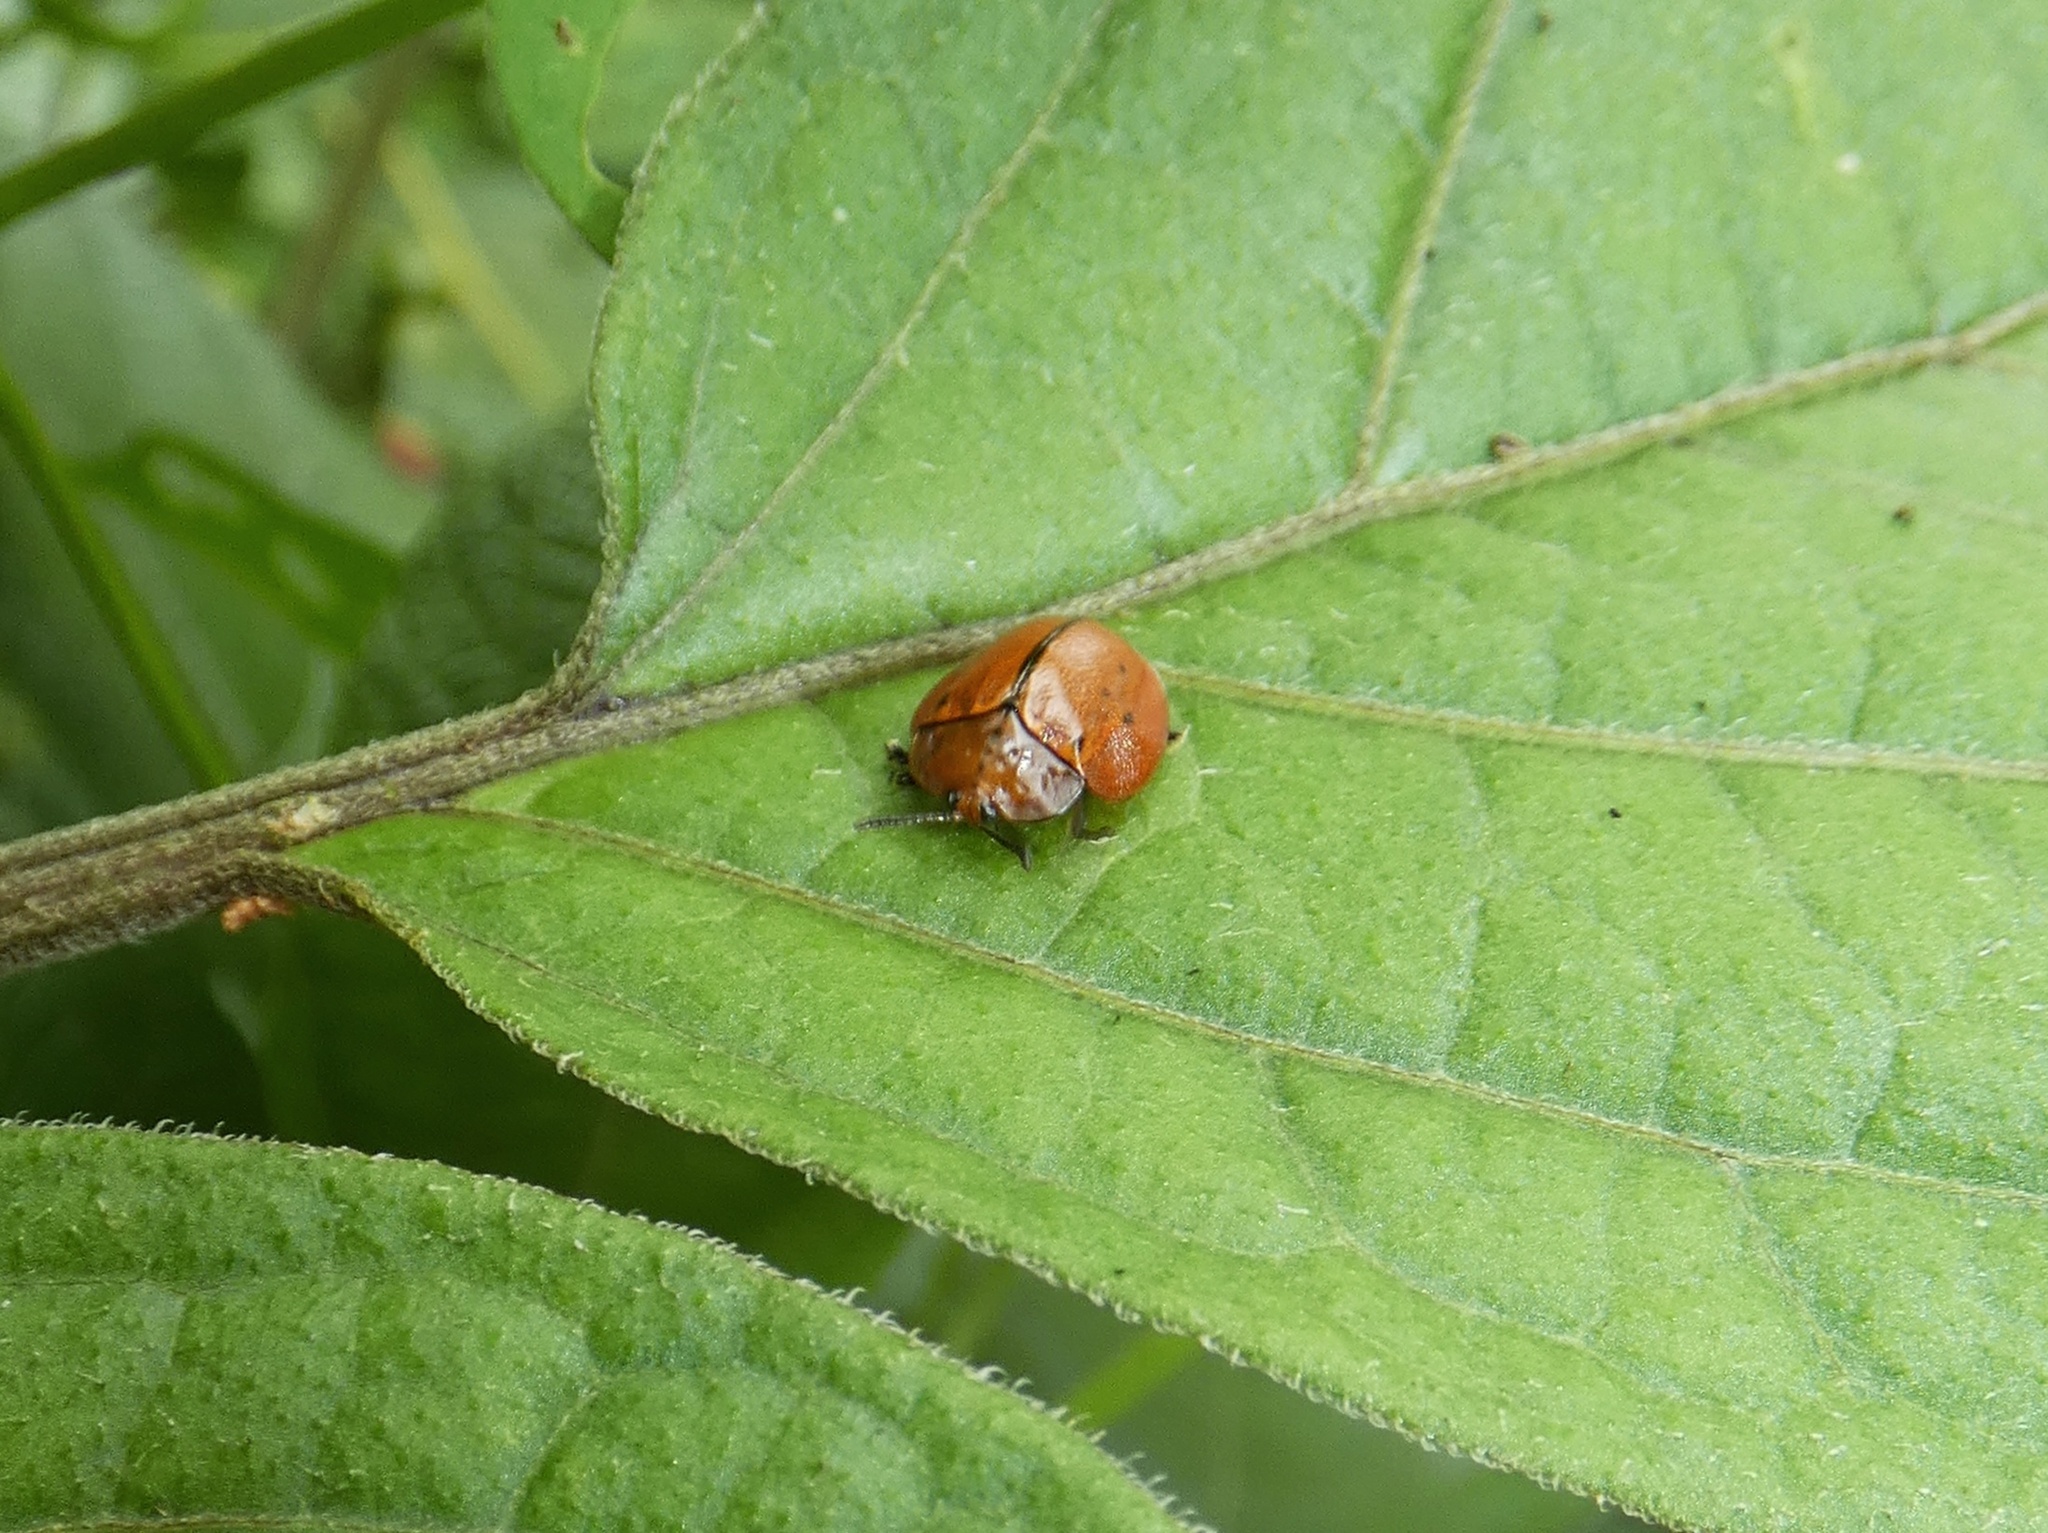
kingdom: Animalia
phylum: Arthropoda
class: Insecta
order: Coleoptera
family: Chrysomelidae
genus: Stolas
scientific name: Stolas pertusa
